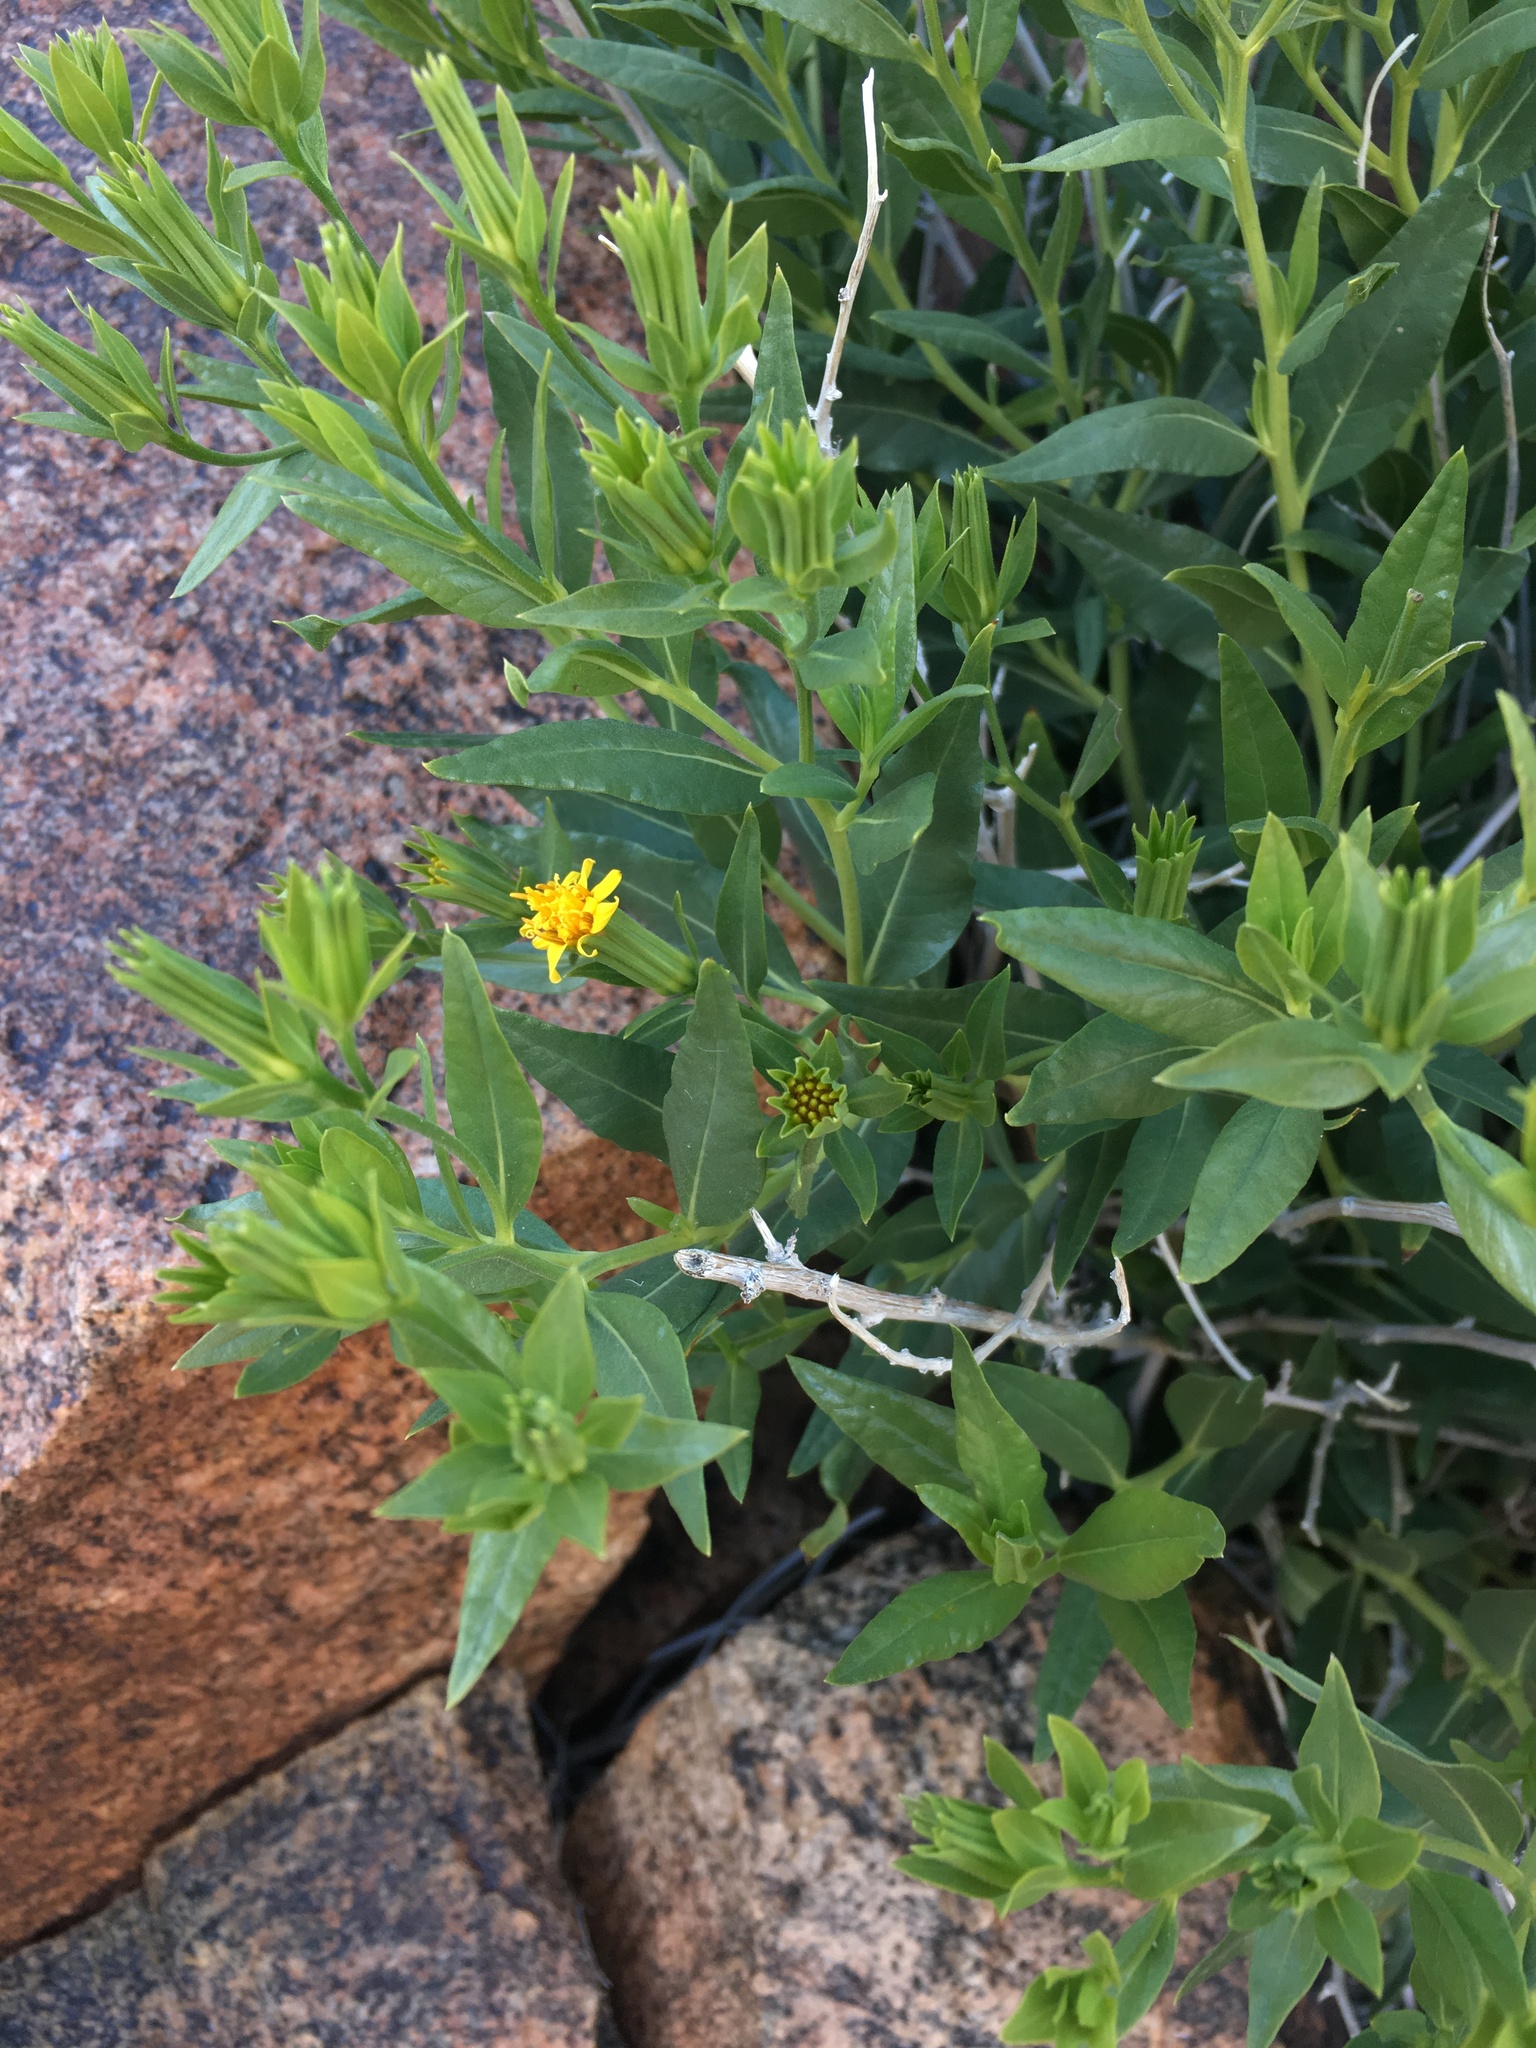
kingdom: Plantae
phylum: Tracheophyta
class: Magnoliopsida
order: Asterales
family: Asteraceae
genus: Trixis
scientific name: Trixis californica
